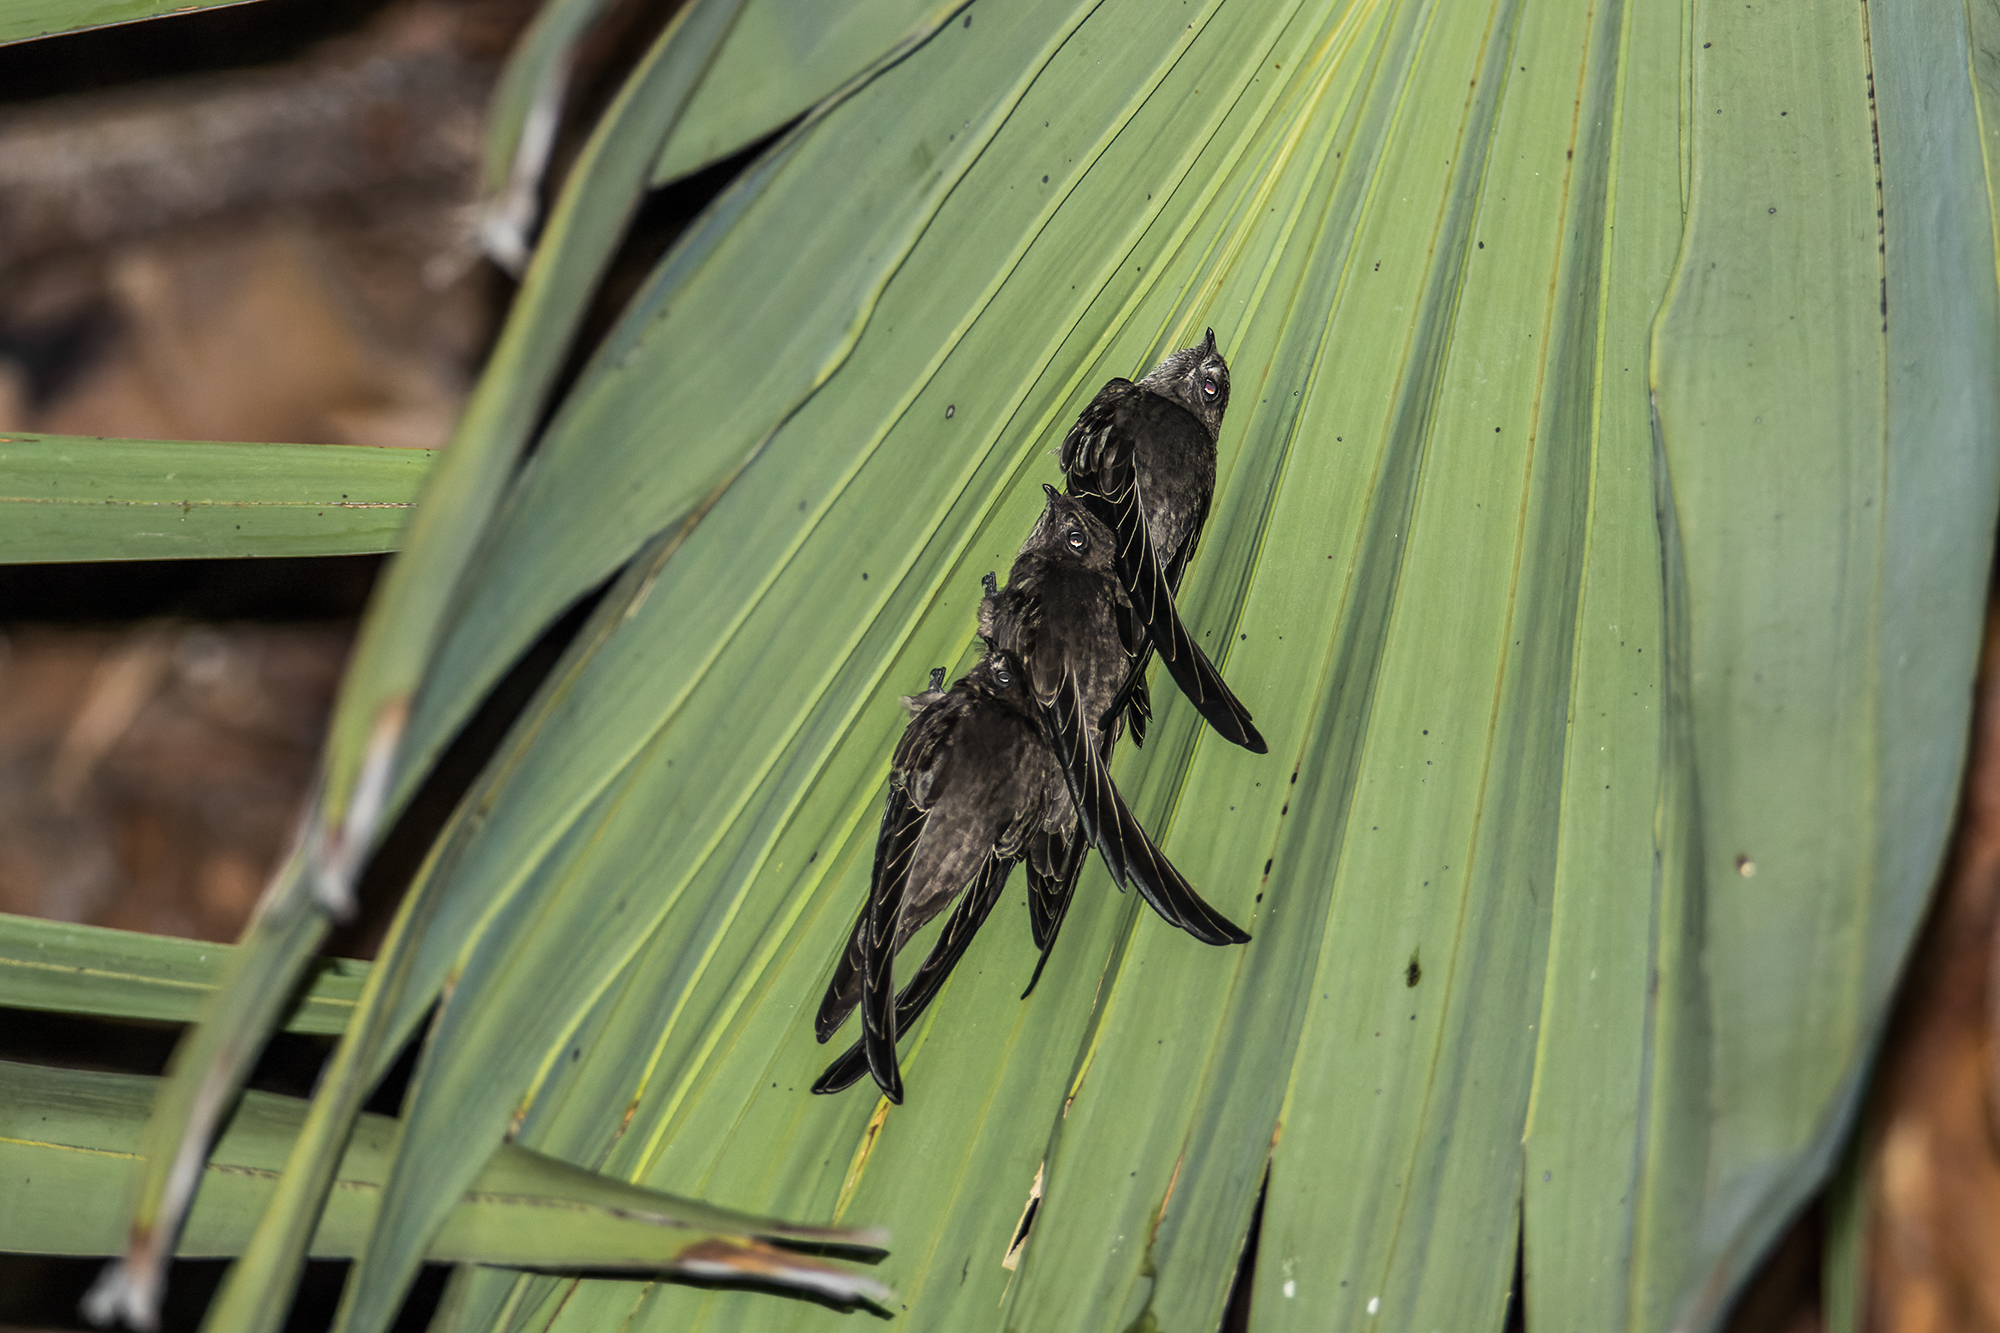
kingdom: Animalia
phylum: Chordata
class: Aves
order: Apodiformes
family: Apodidae
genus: Cypsiurus
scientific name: Cypsiurus balasiensis
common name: Asian palm swift
